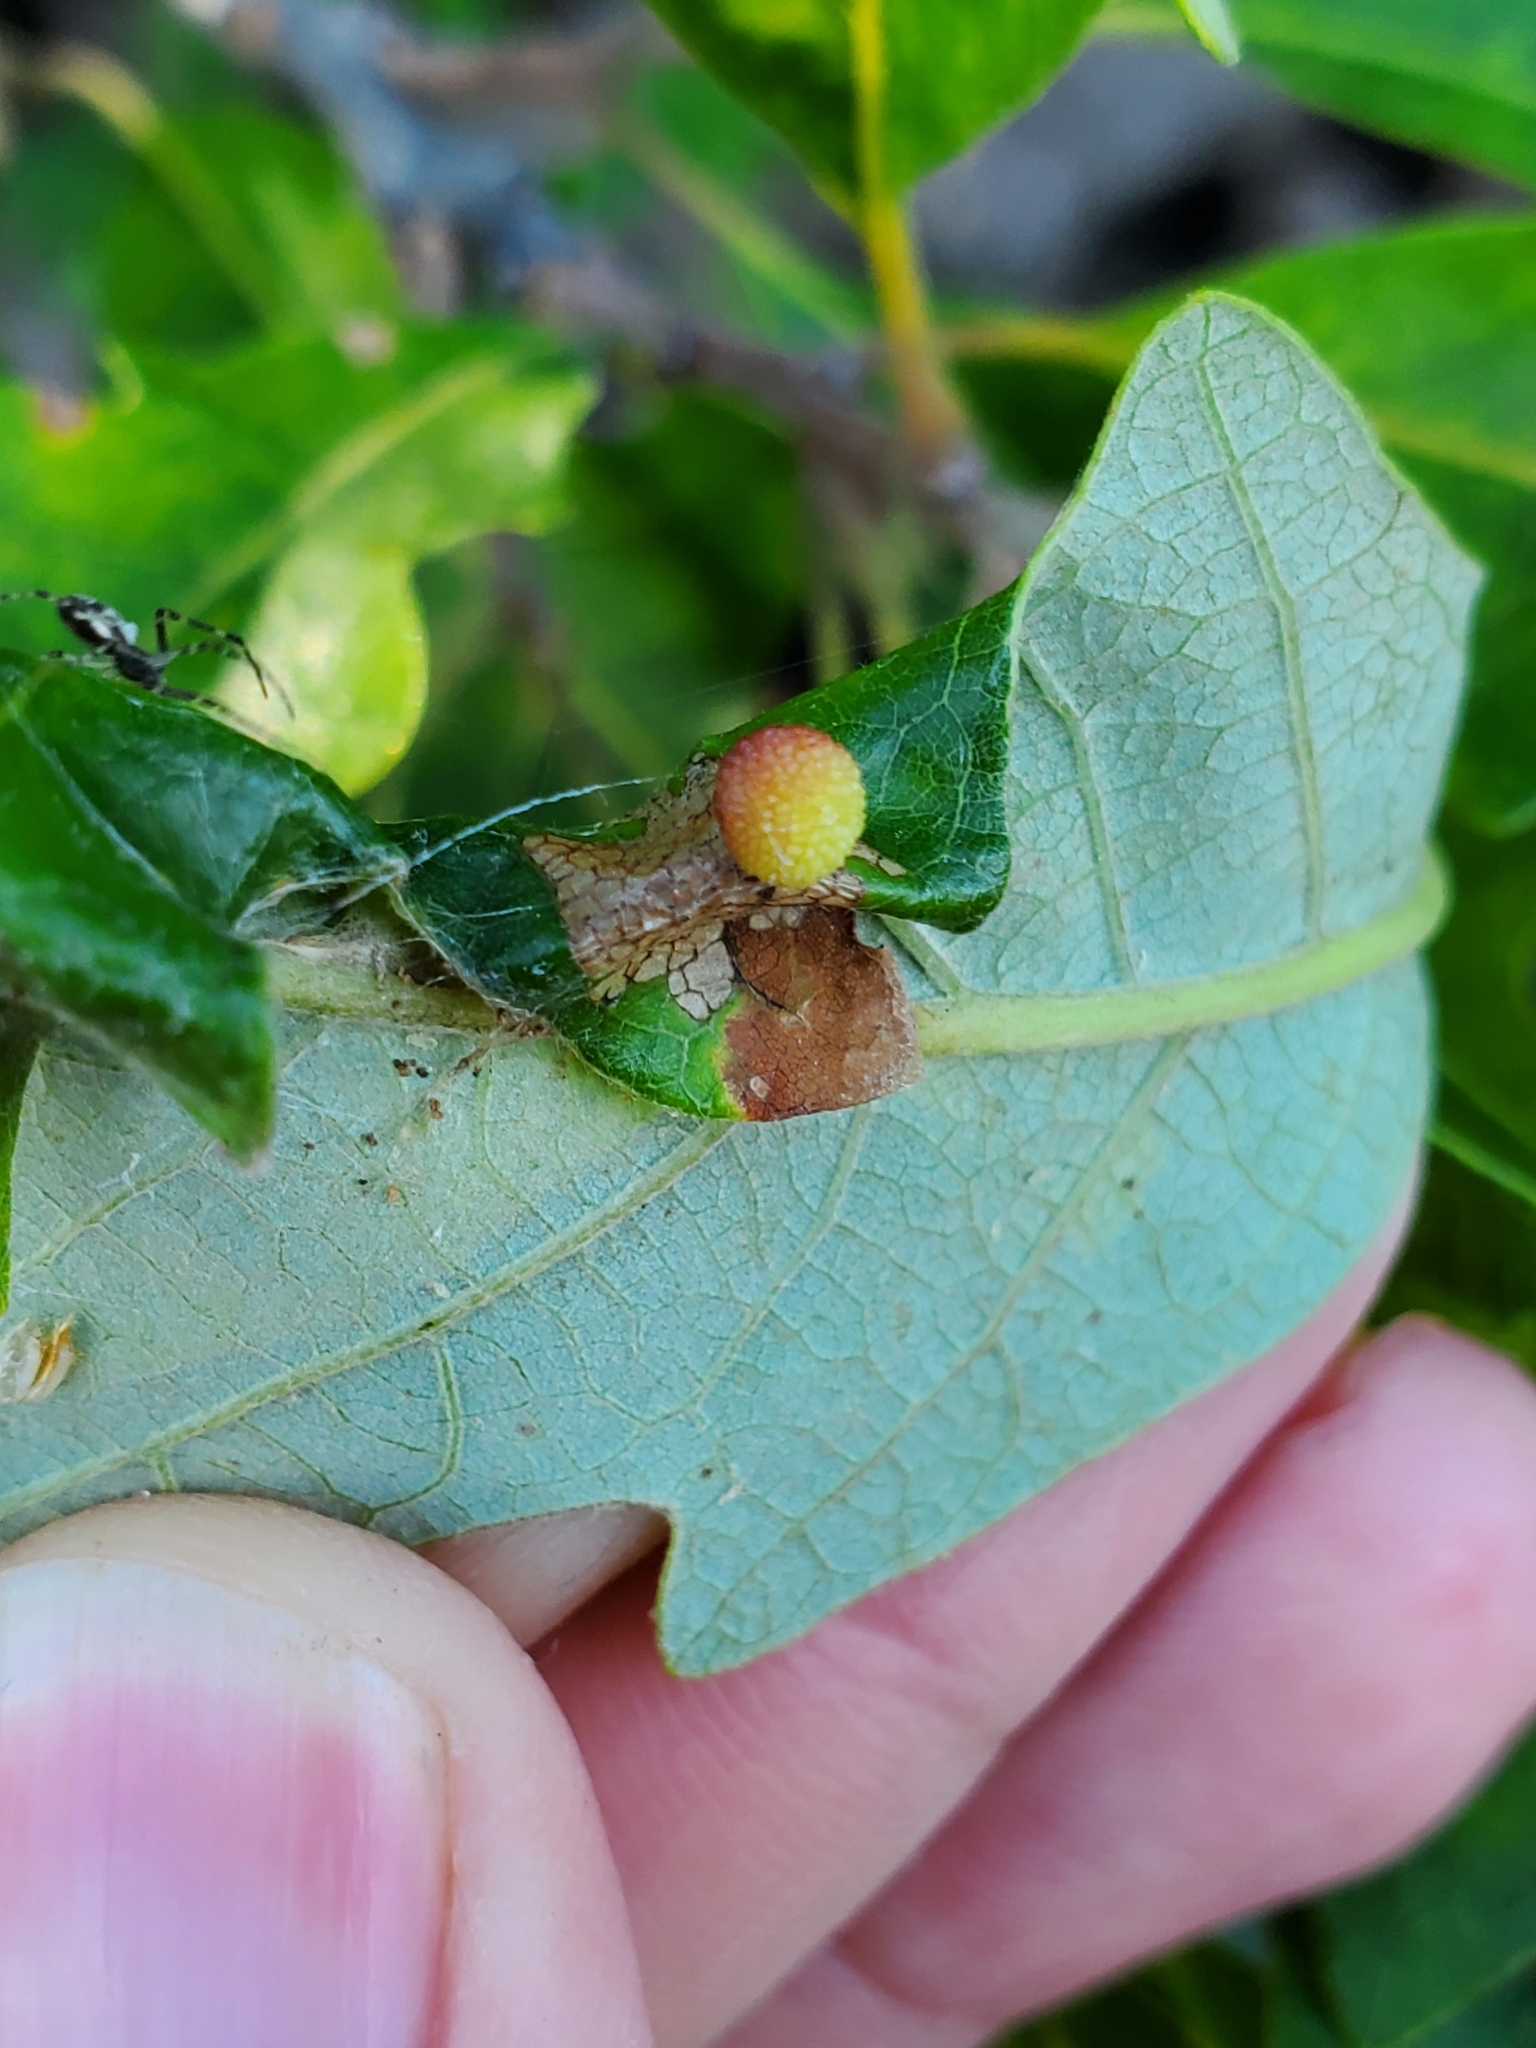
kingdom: Animalia
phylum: Arthropoda
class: Insecta
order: Hymenoptera
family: Cynipidae
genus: Acraspis
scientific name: Acraspis quercushirta
